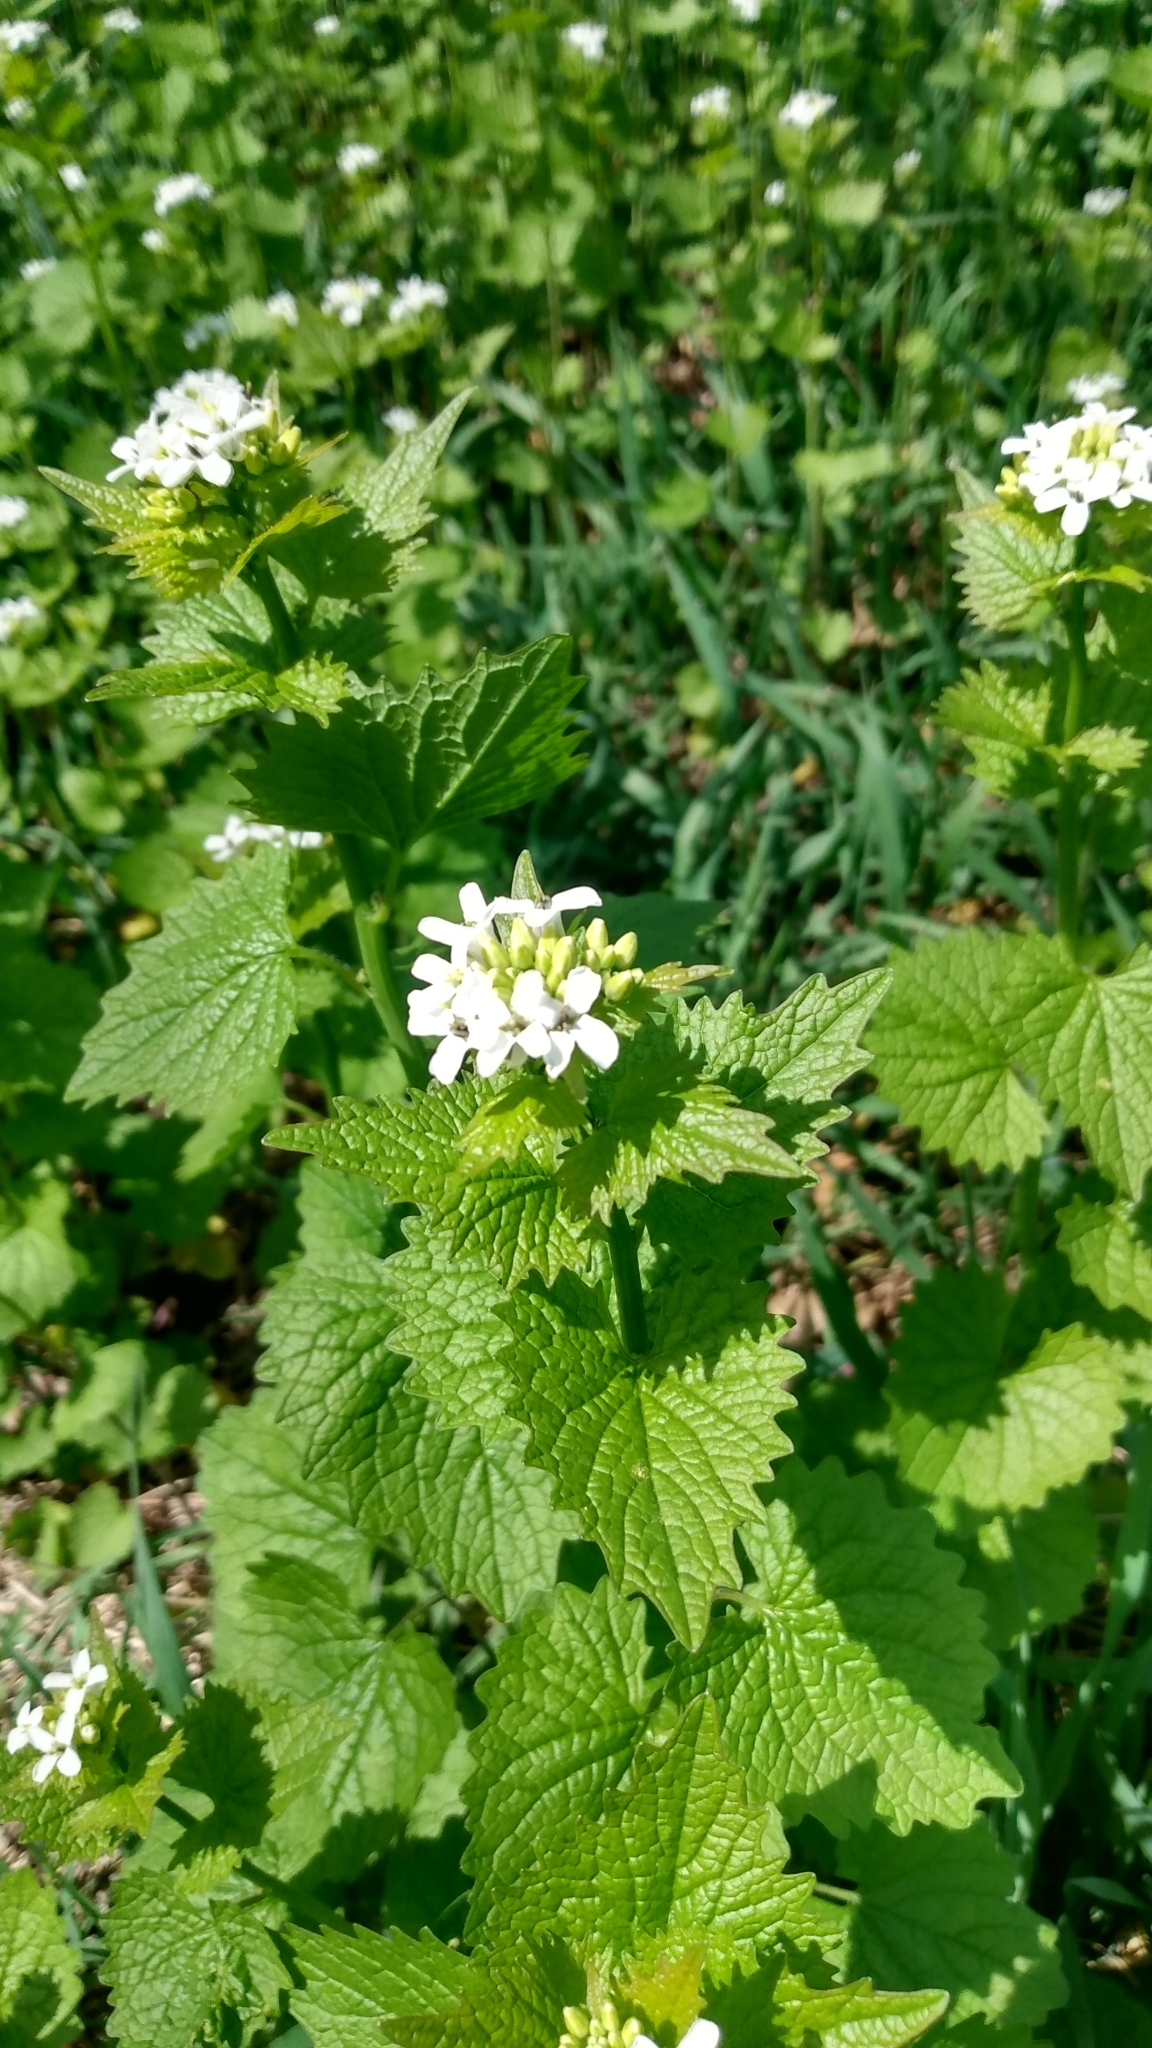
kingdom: Plantae
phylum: Tracheophyta
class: Magnoliopsida
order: Brassicales
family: Brassicaceae
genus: Alliaria
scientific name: Alliaria petiolata
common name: Garlic mustard
